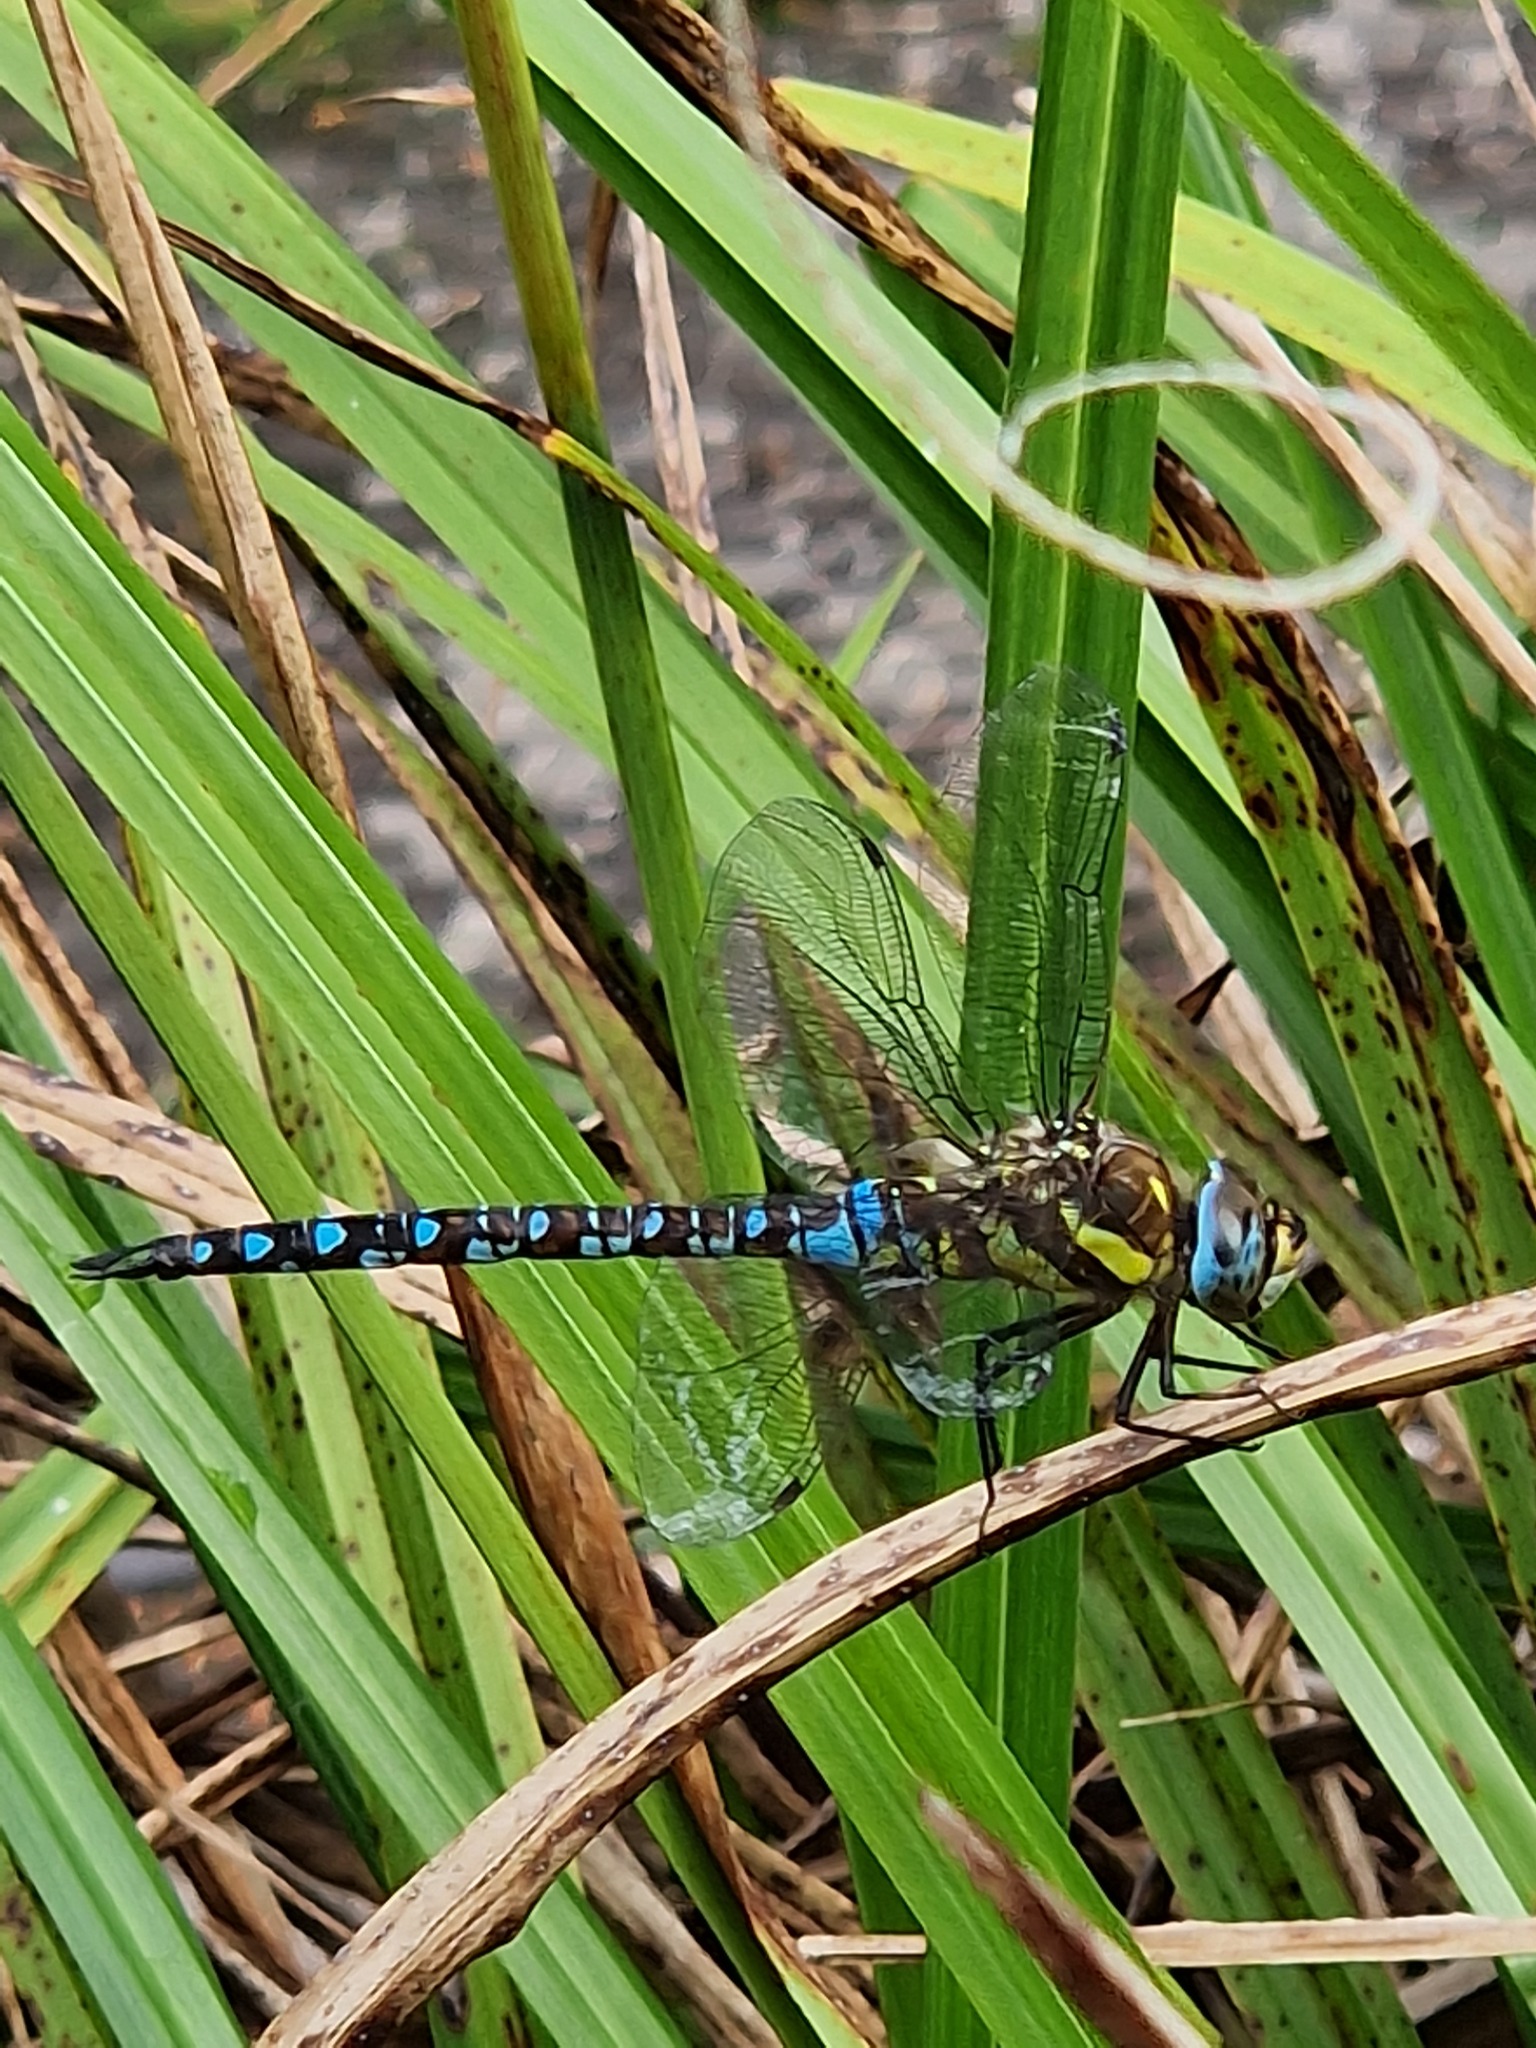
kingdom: Animalia
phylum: Arthropoda
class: Insecta
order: Odonata
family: Aeshnidae
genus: Aeshna
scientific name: Aeshna mixta
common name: Migrant hawker
